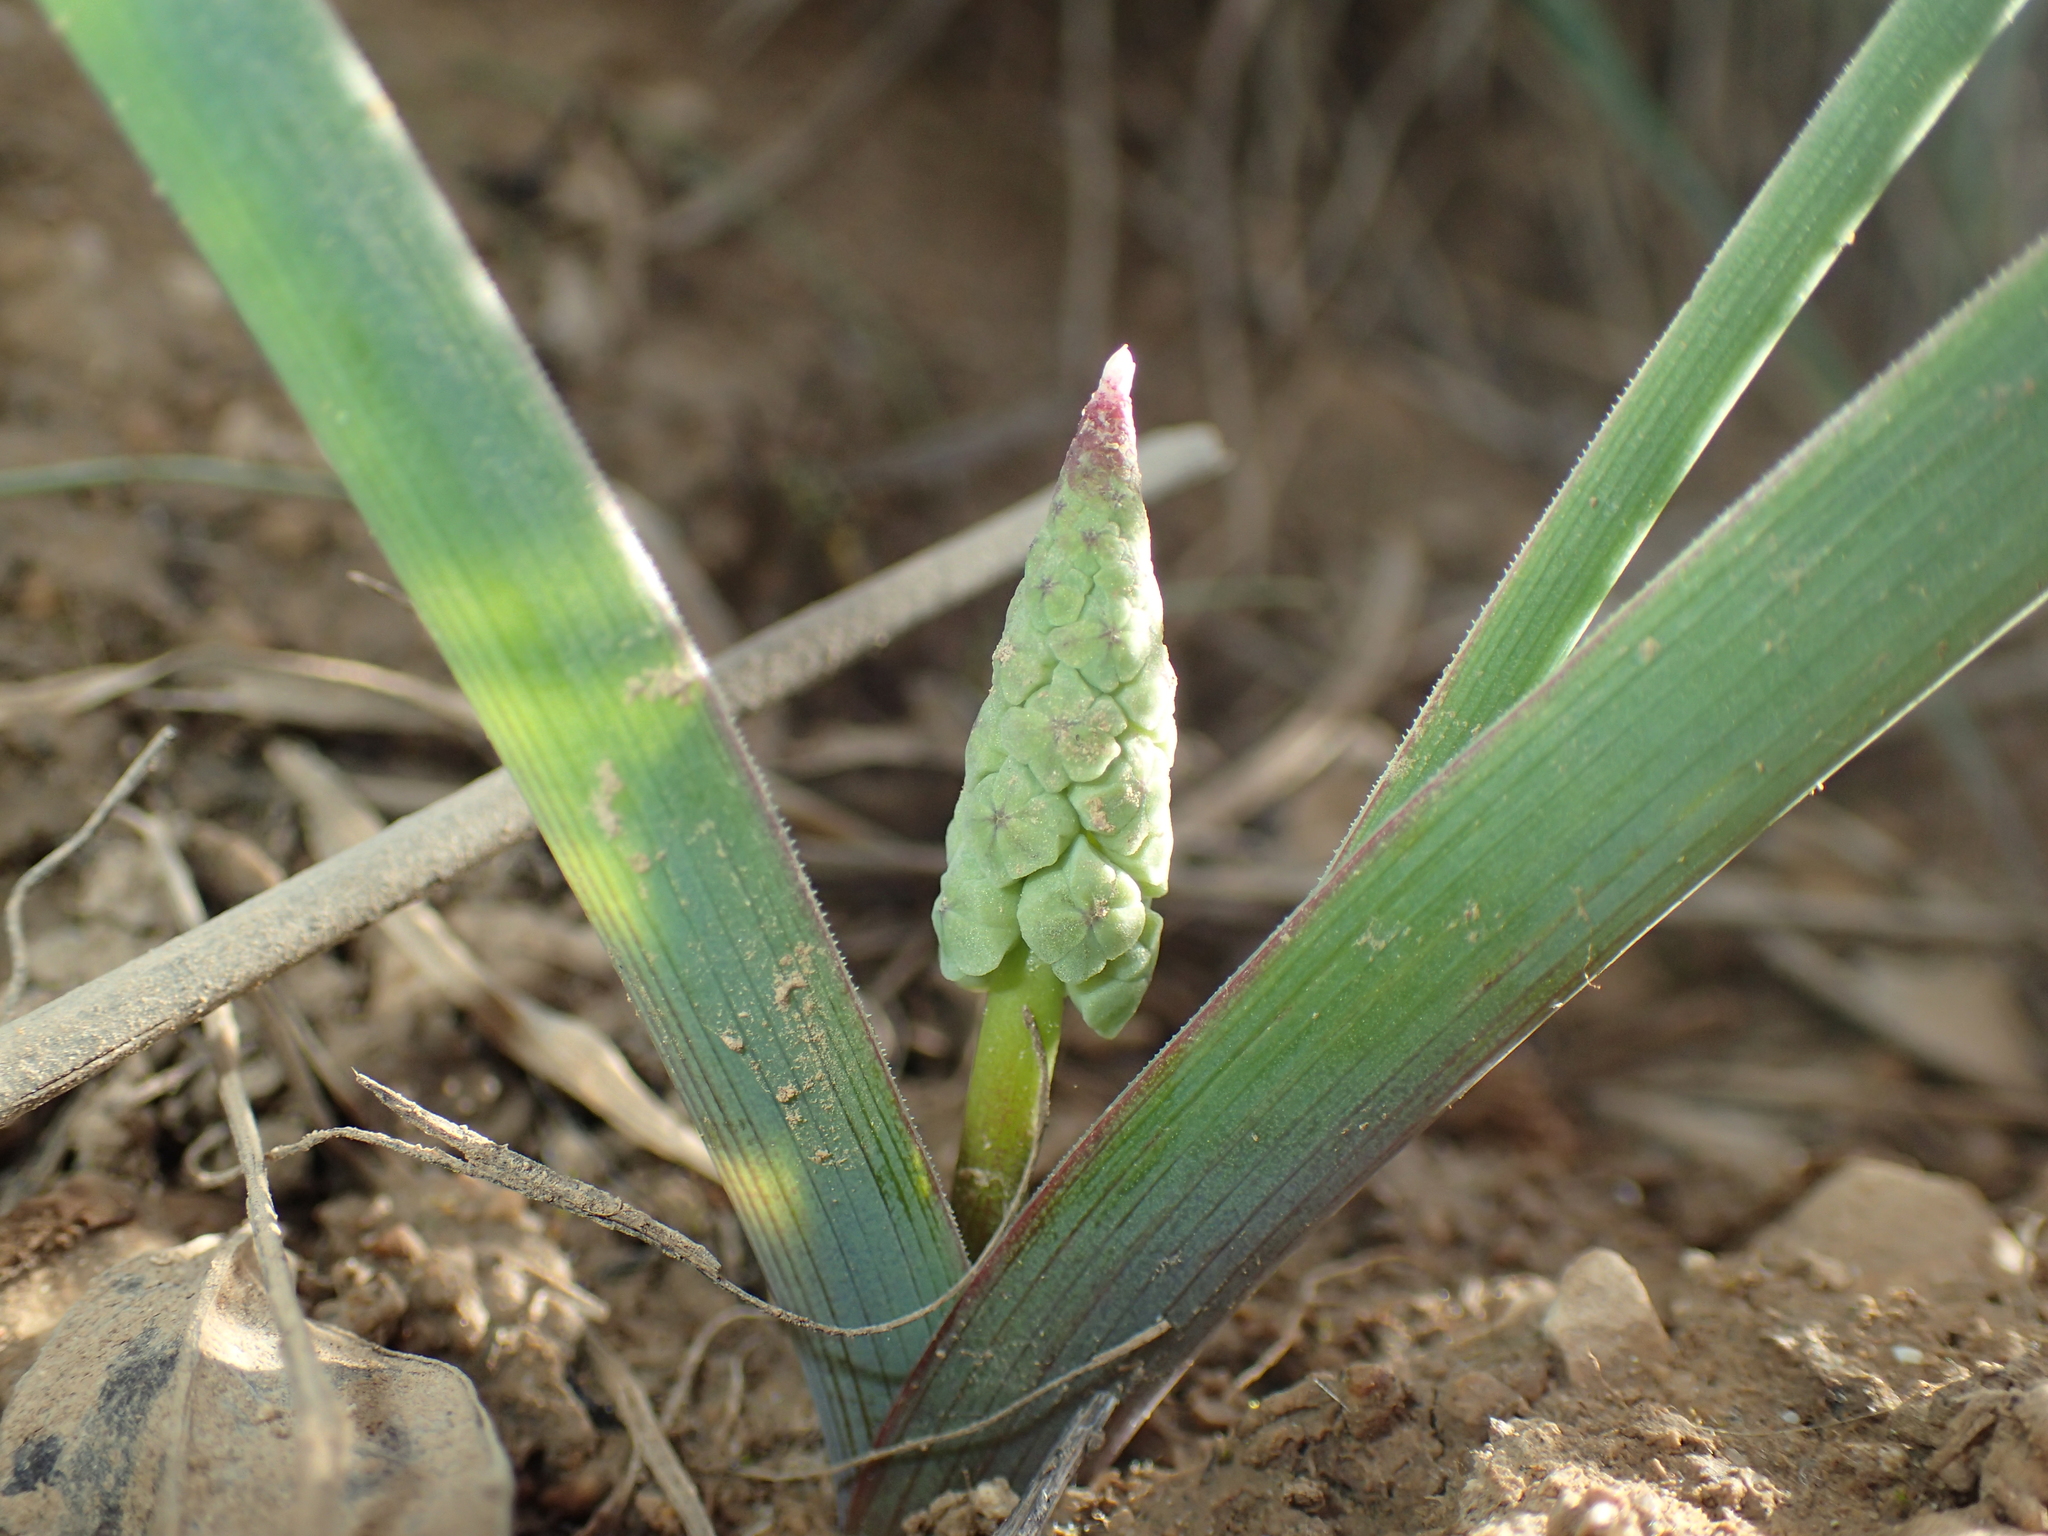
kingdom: Plantae
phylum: Tracheophyta
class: Liliopsida
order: Asparagales
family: Asparagaceae
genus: Muscari
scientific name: Muscari comosum
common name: Tassel hyacinth
